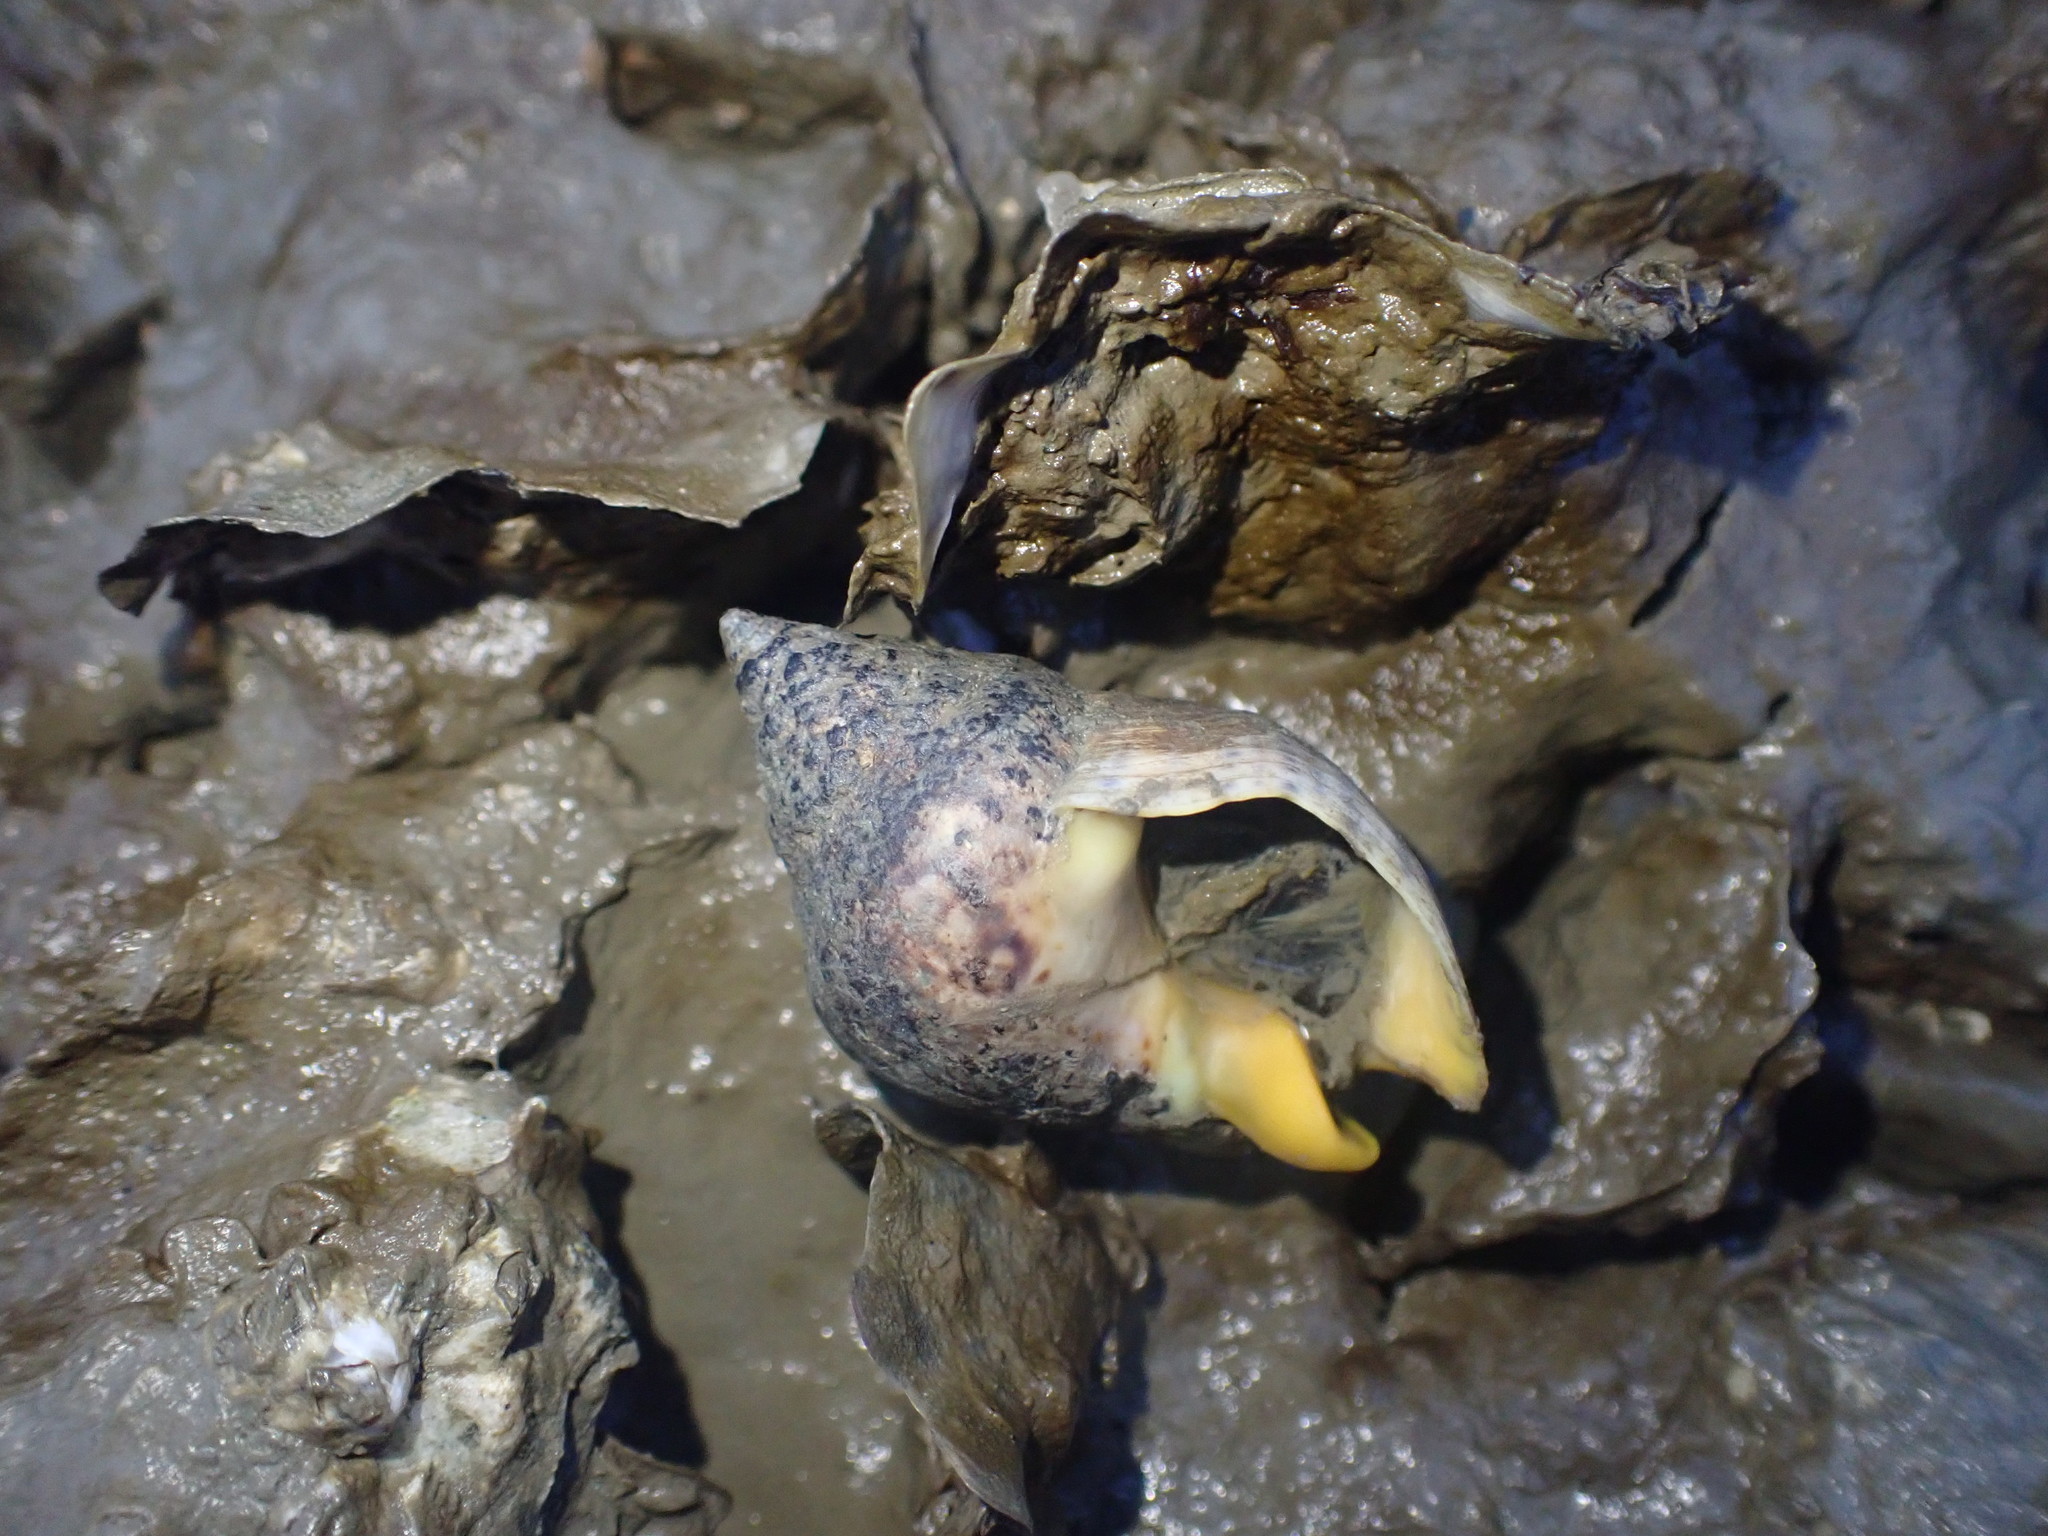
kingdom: Animalia
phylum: Mollusca
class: Gastropoda
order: Neogastropoda
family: Cominellidae
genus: Cominella
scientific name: Cominella adspersa
